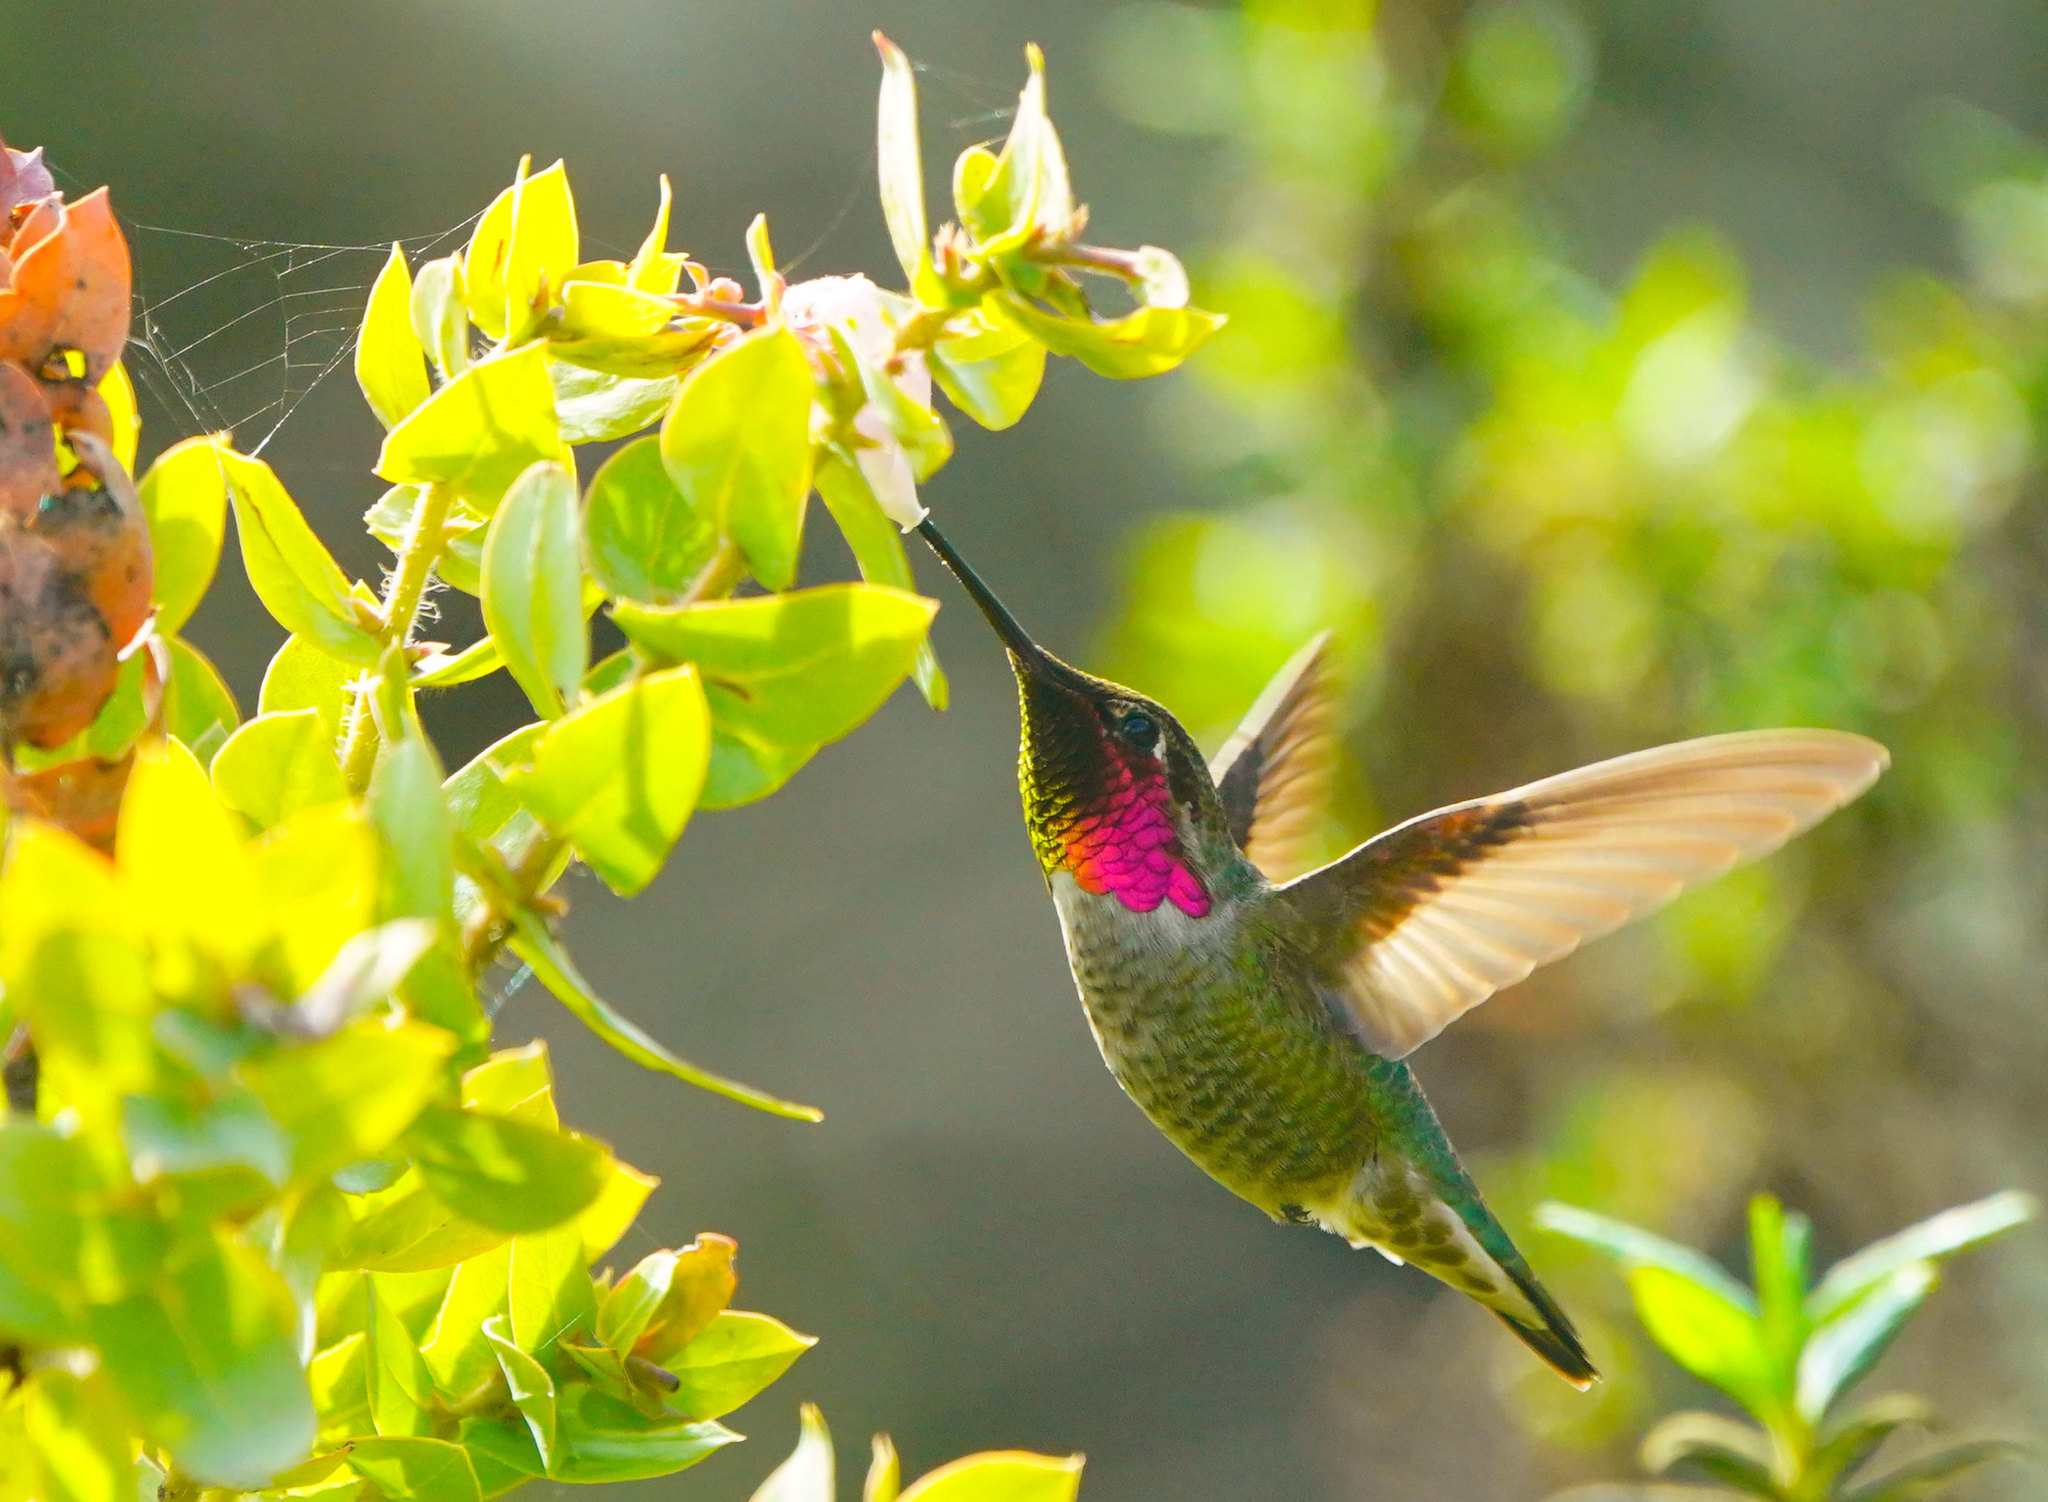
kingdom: Animalia
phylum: Chordata
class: Aves
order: Apodiformes
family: Trochilidae
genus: Calypte
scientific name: Calypte anna
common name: Anna's hummingbird
